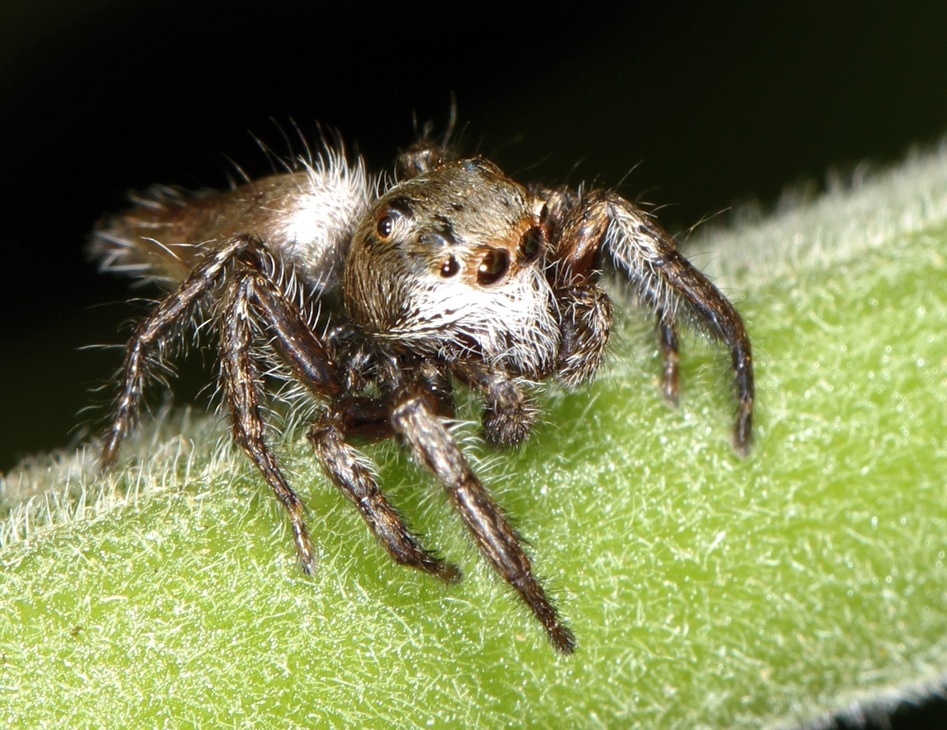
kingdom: Animalia
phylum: Arthropoda
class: Arachnida
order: Araneae
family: Salticidae
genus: Hyllus
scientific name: Hyllus brevitarsis
